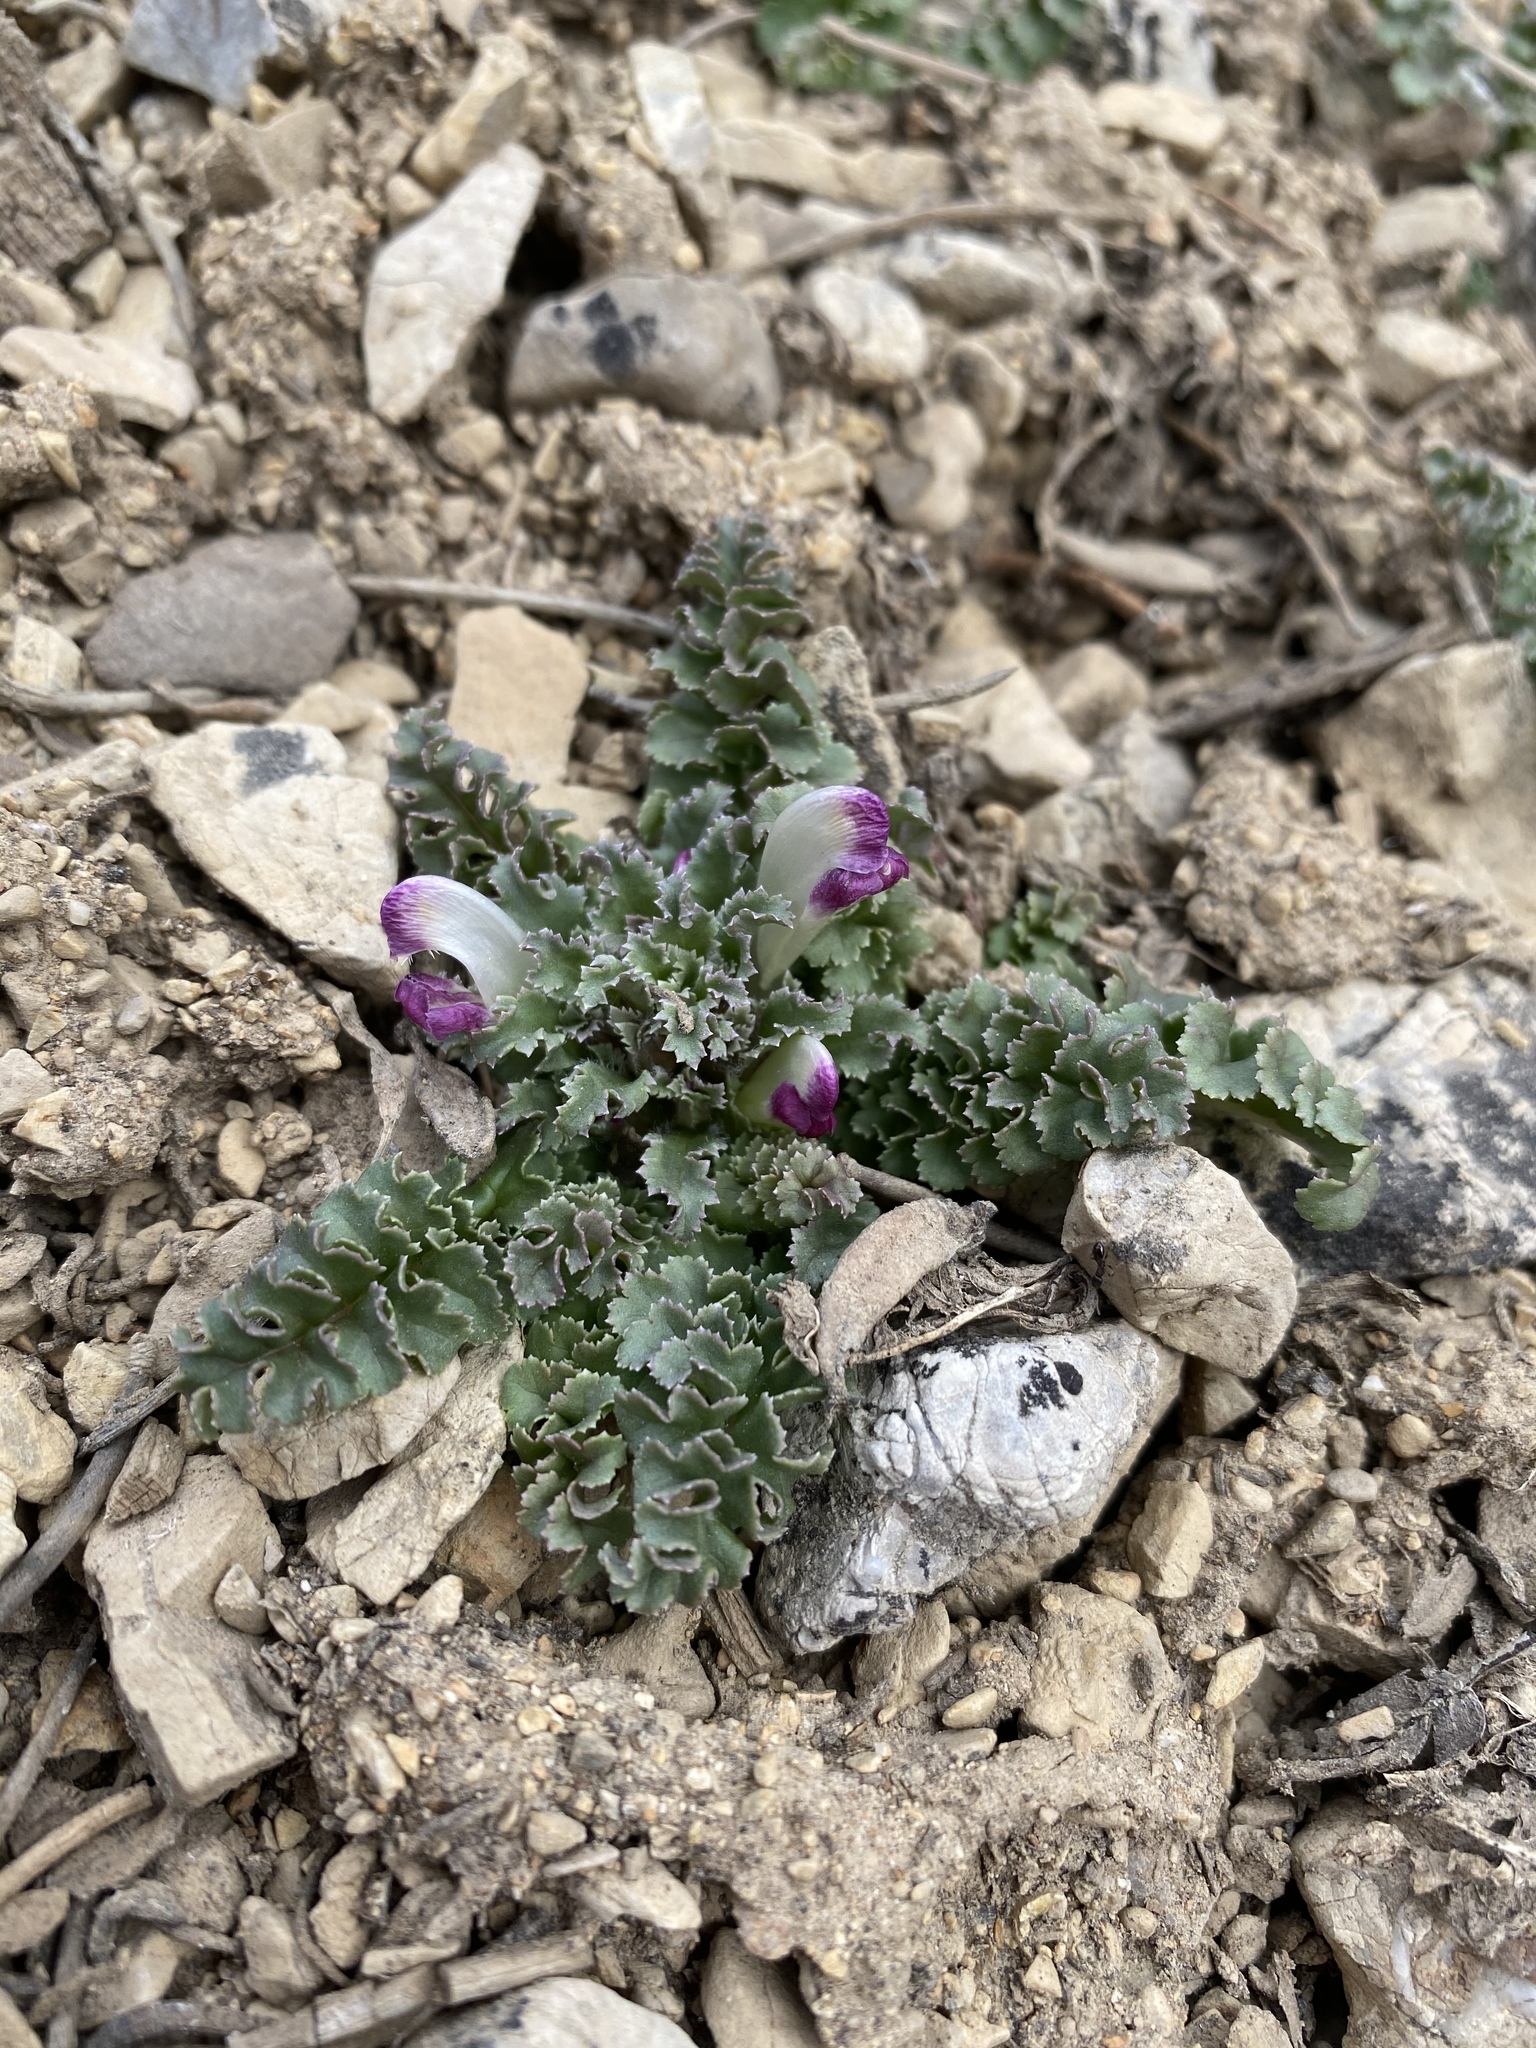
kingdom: Plantae
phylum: Tracheophyta
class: Magnoliopsida
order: Lamiales
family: Orobanchaceae
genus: Pedicularis
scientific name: Pedicularis centranthera
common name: Dwarf lousewort
